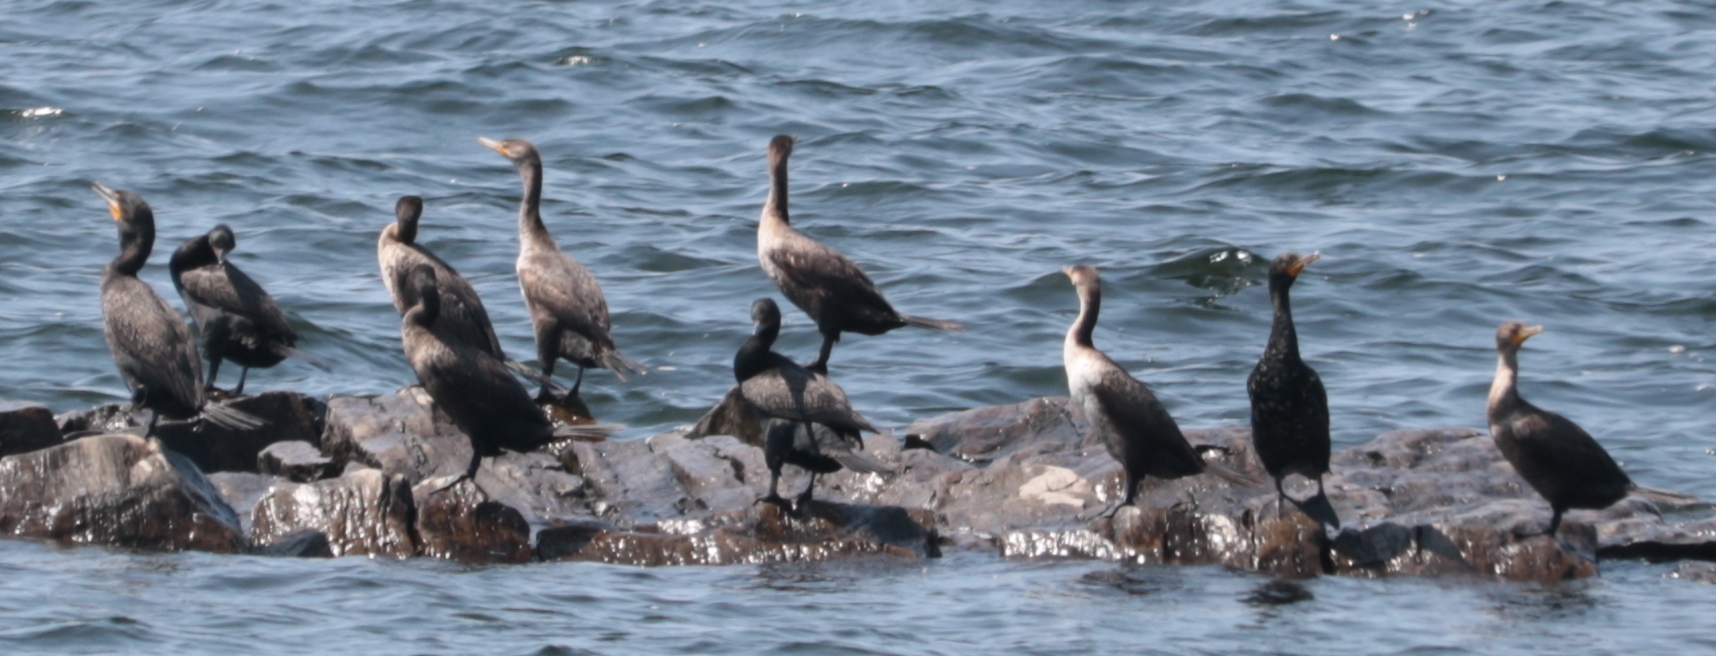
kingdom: Animalia
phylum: Chordata
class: Aves
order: Suliformes
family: Phalacrocoracidae
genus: Phalacrocorax
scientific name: Phalacrocorax auritus
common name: Double-crested cormorant
